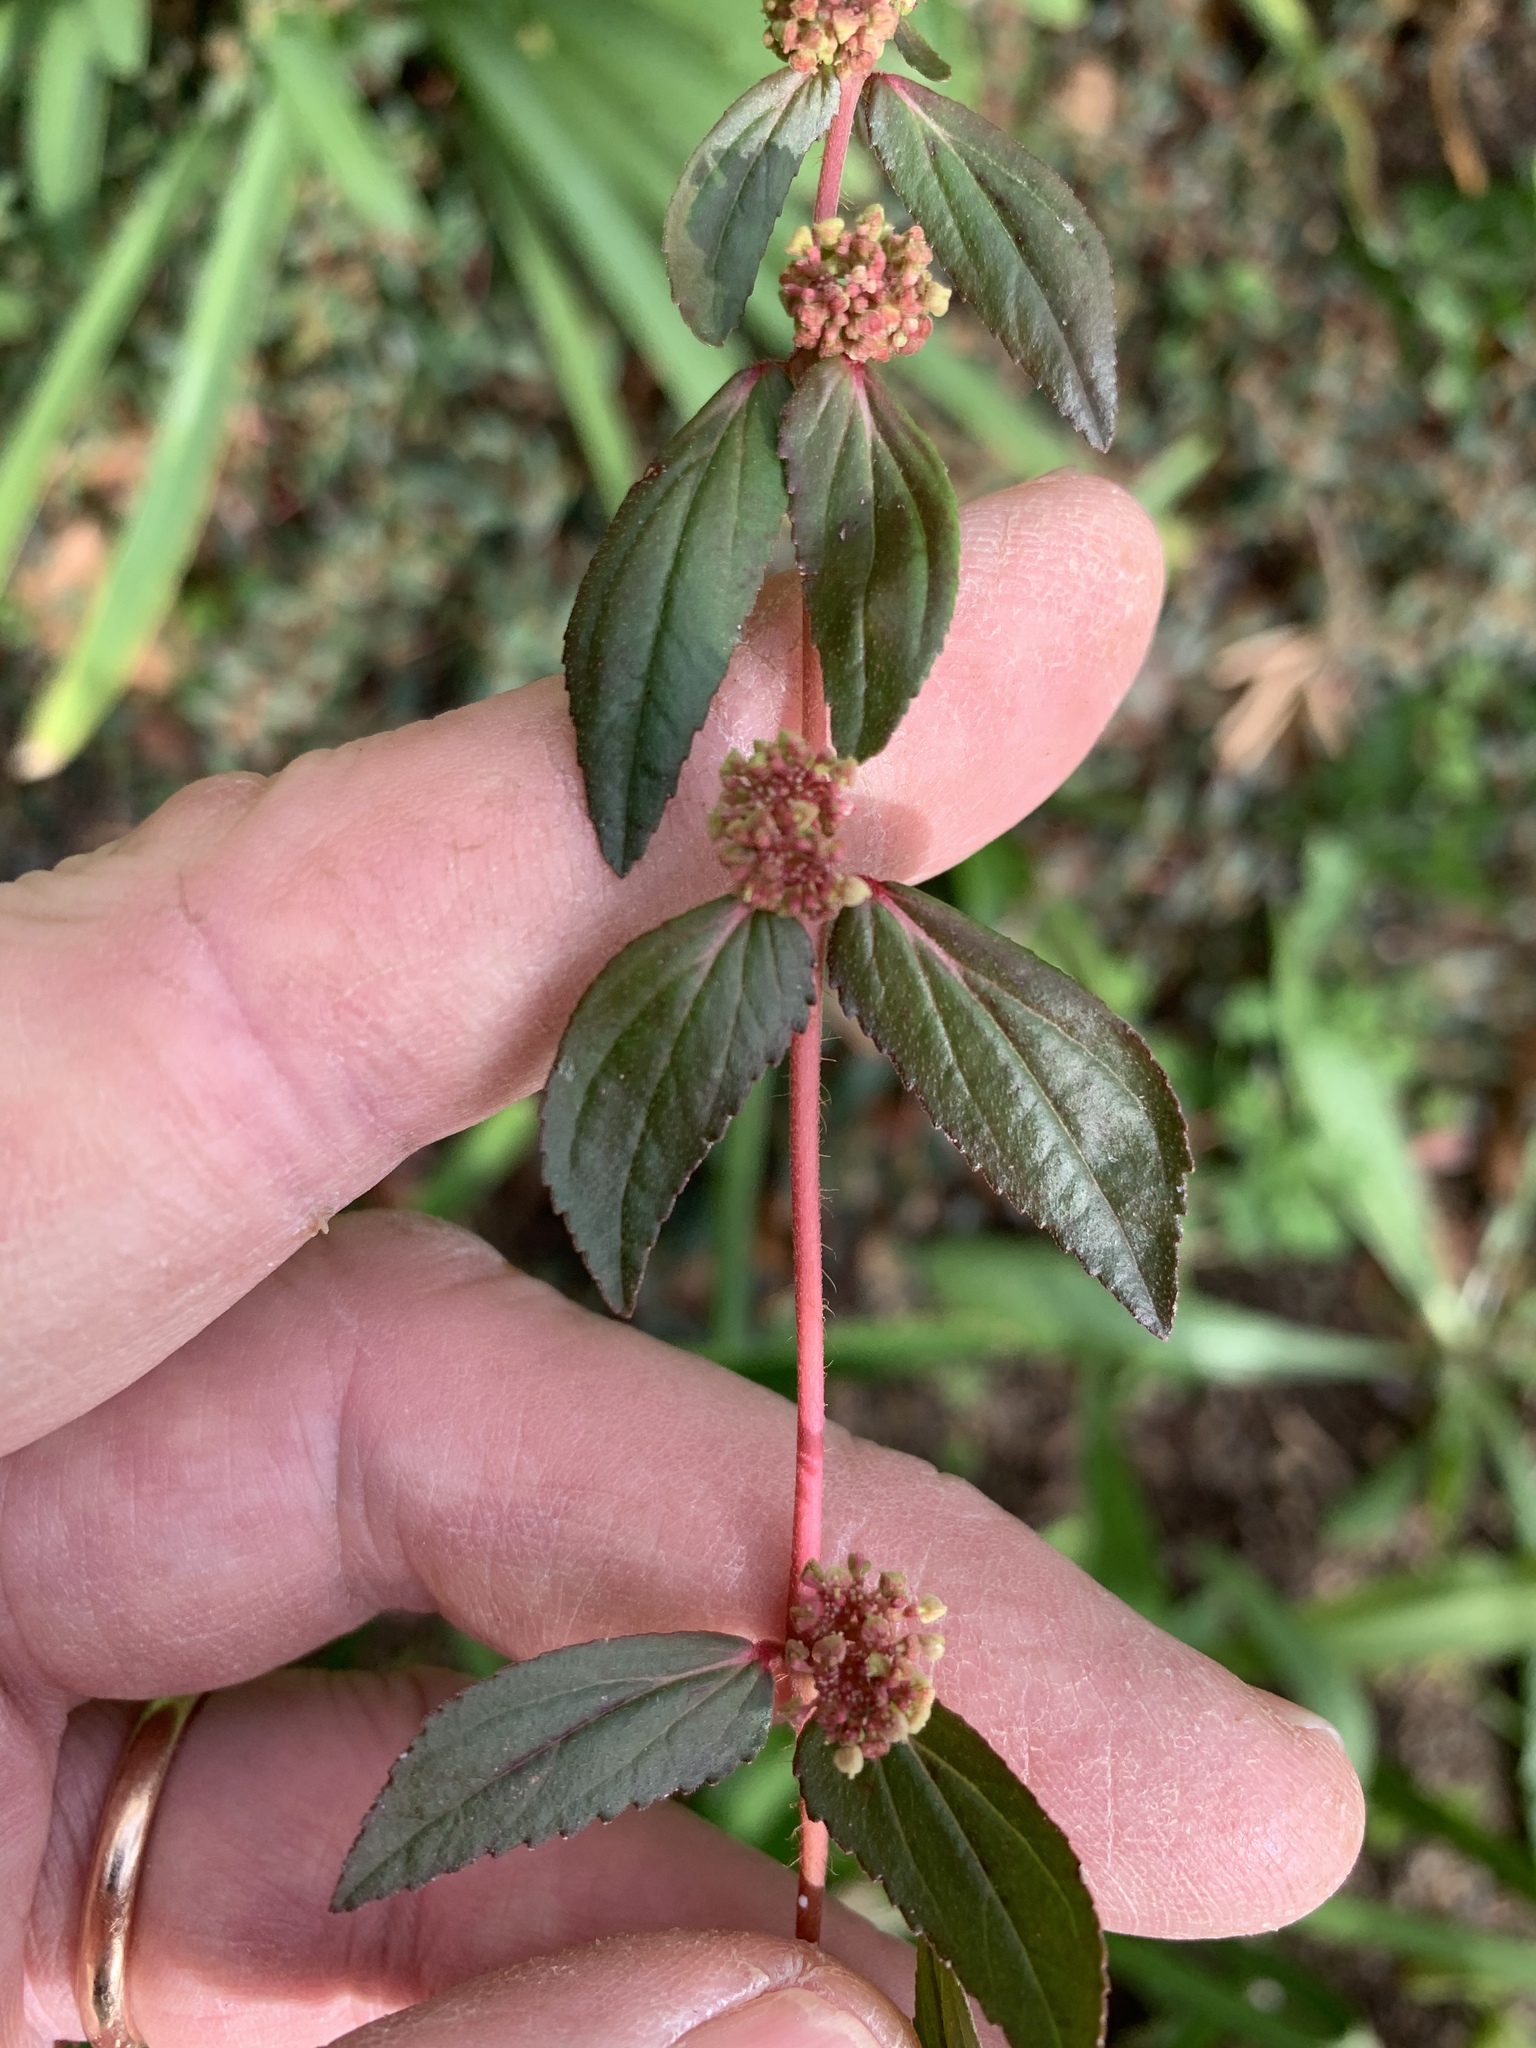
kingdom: Plantae
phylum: Tracheophyta
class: Magnoliopsida
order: Malpighiales
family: Euphorbiaceae
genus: Euphorbia
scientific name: Euphorbia hirta
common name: Pillpod sandmat
